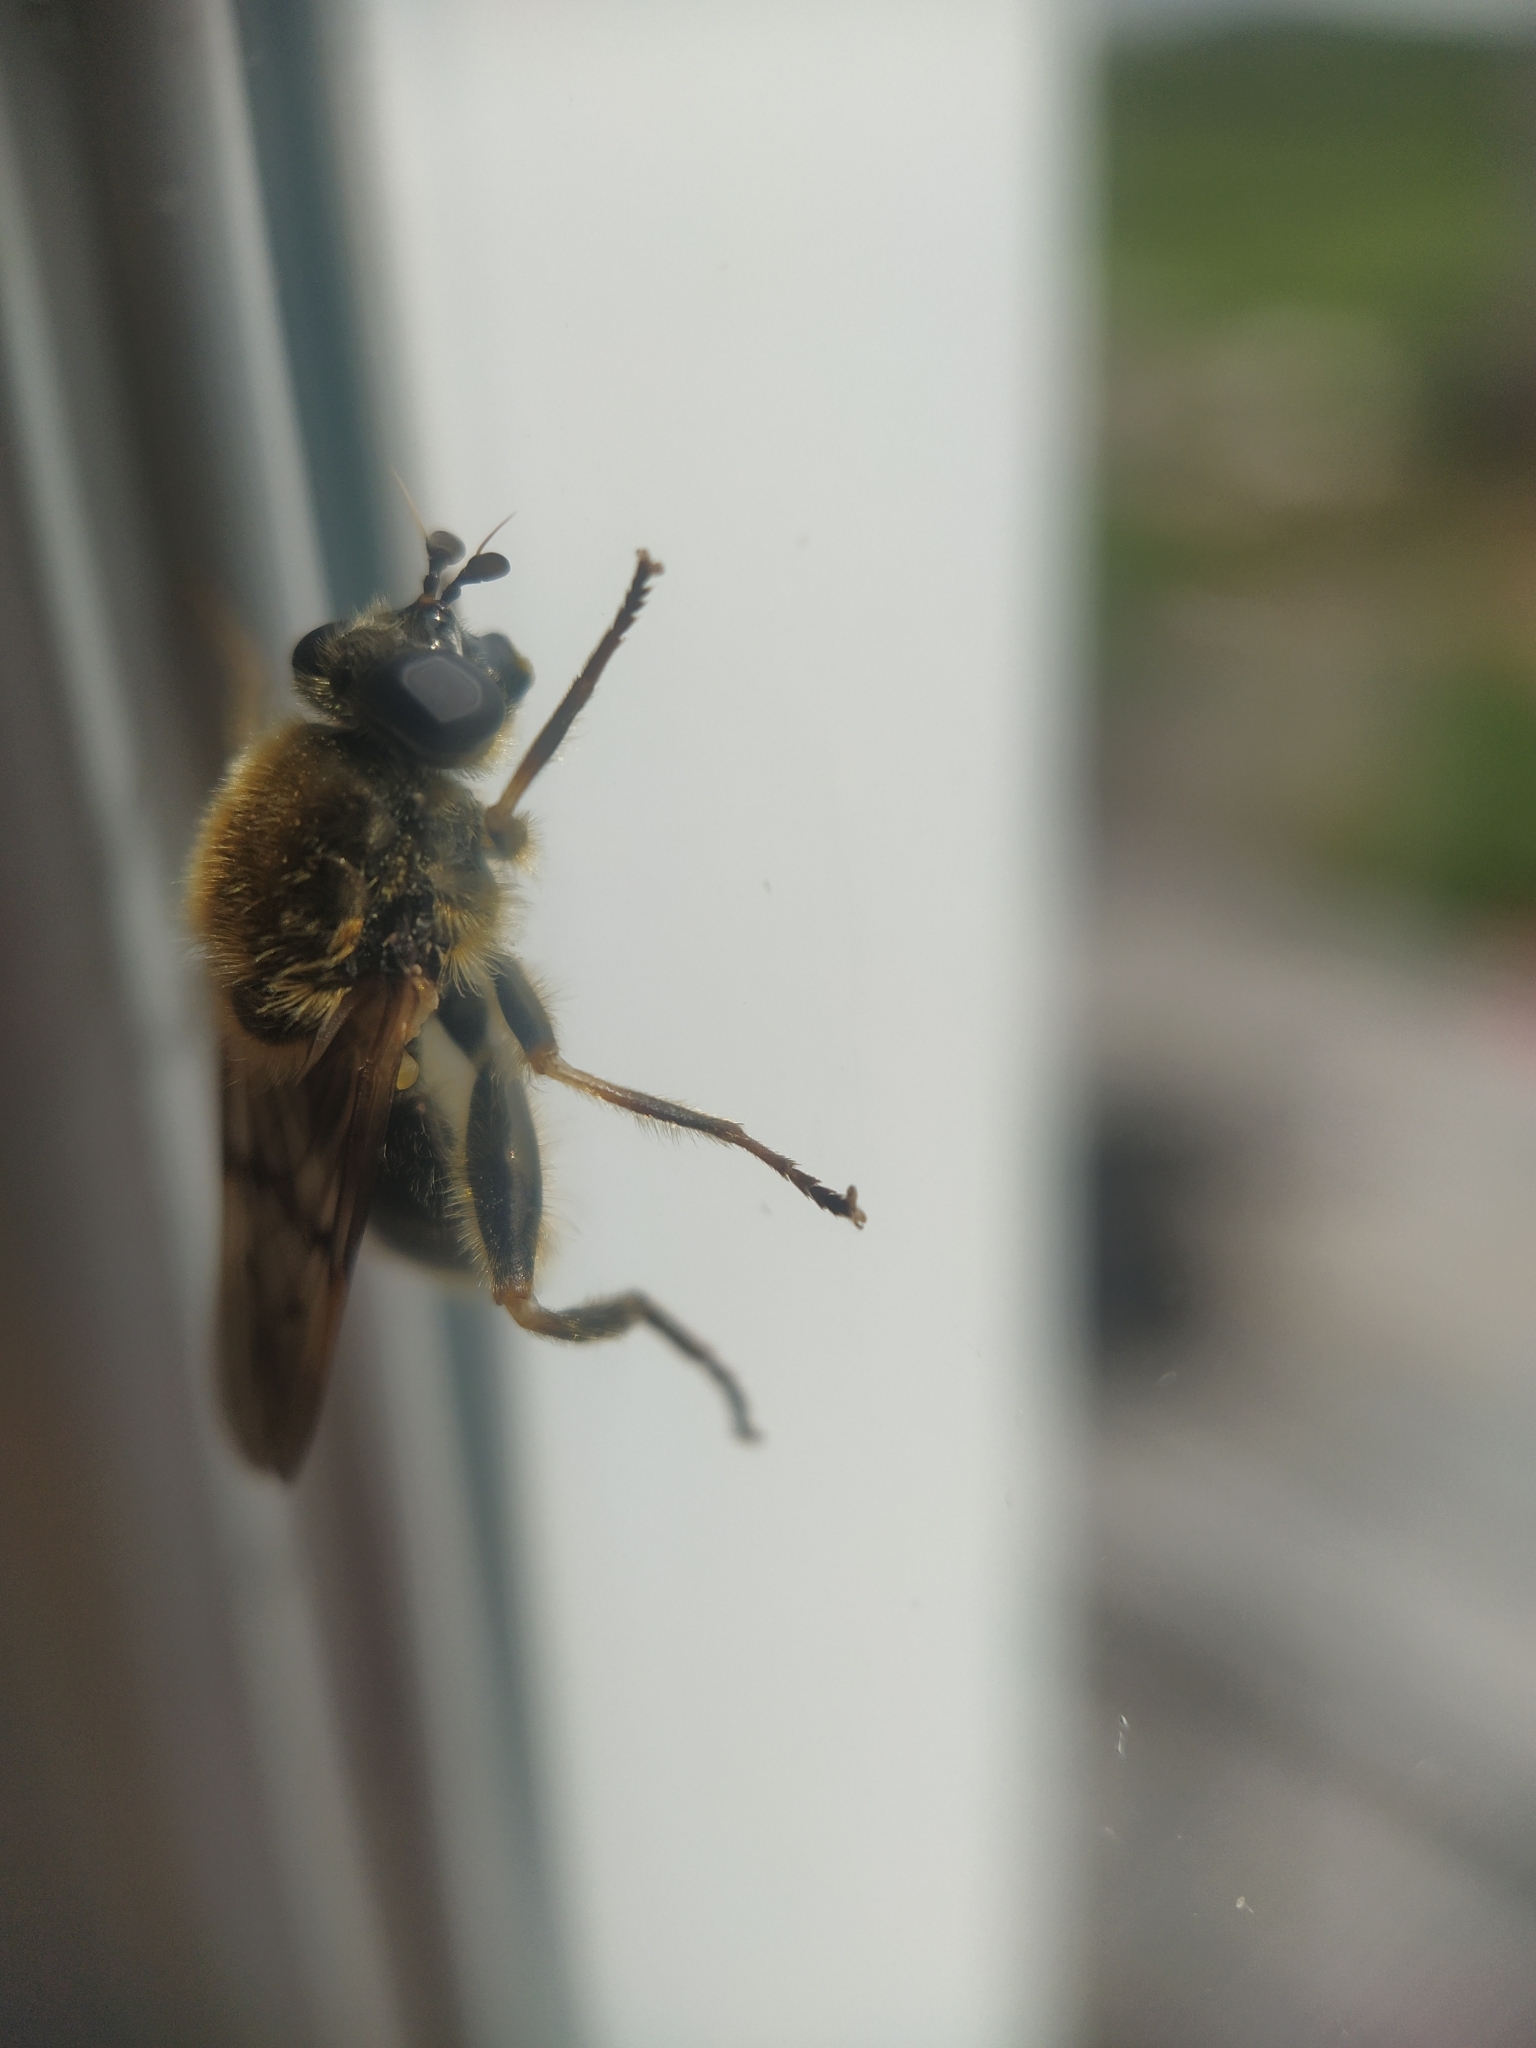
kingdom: Animalia
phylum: Arthropoda
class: Insecta
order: Diptera
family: Syrphidae
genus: Brachypalpus
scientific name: Brachypalpus oarus
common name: Eastern catkin fly
